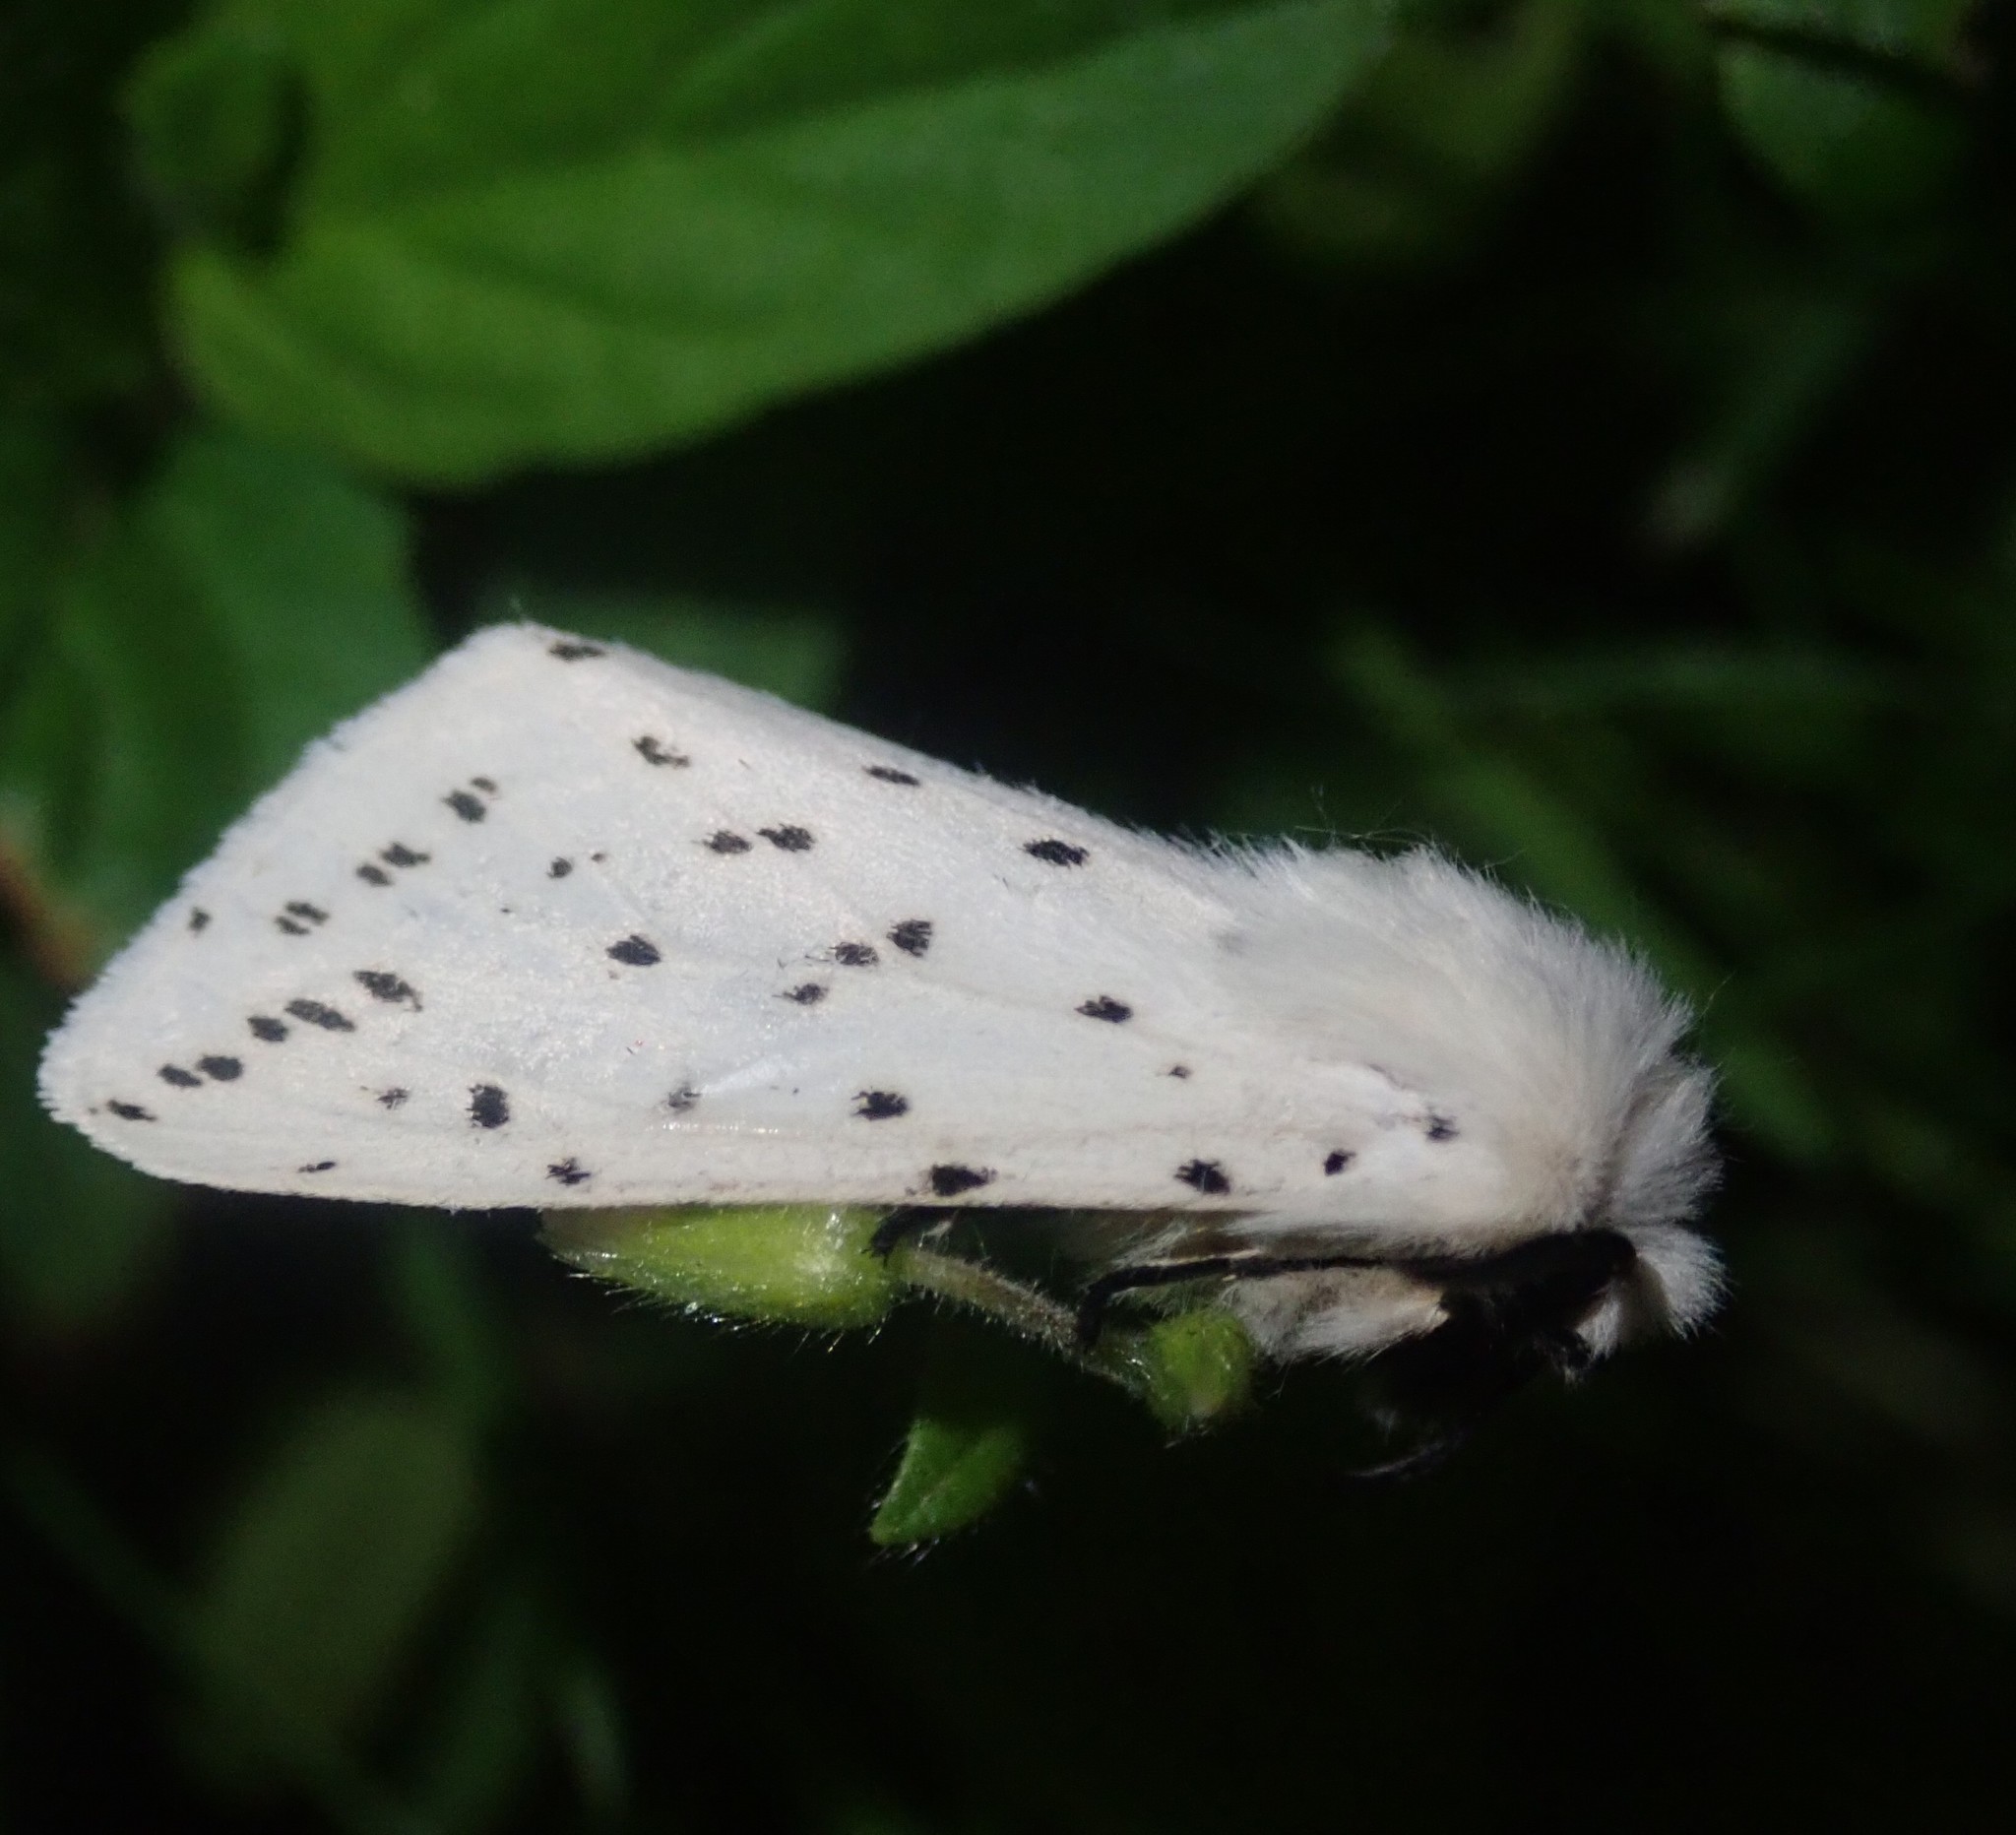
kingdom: Animalia
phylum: Arthropoda
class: Insecta
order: Lepidoptera
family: Erebidae
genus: Spilosoma
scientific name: Spilosoma lubricipeda
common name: White ermine
